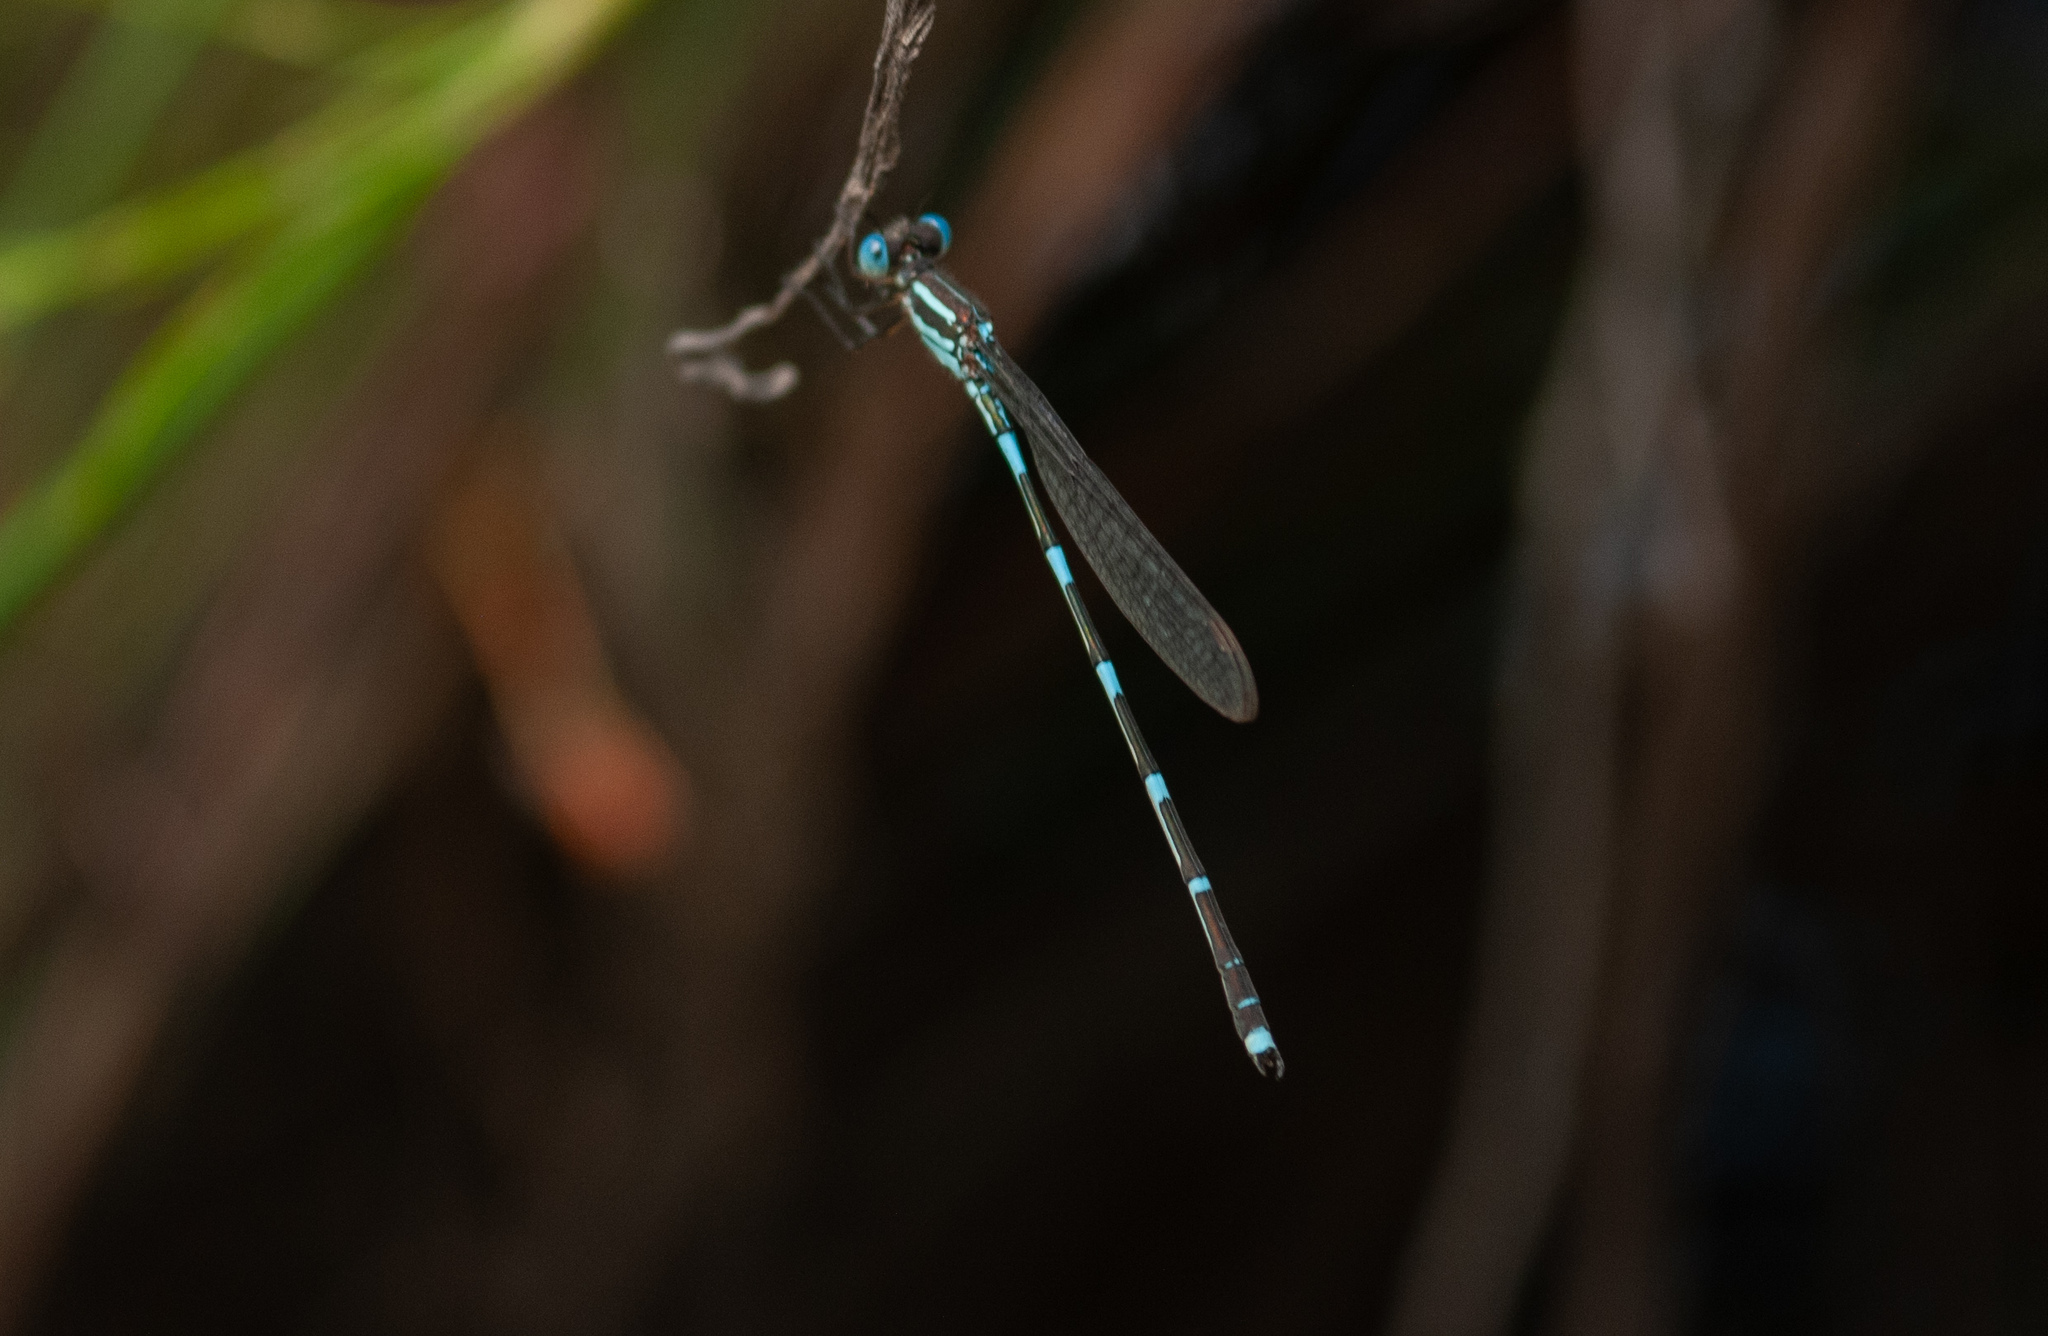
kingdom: Animalia
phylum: Arthropoda
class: Insecta
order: Odonata
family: Lestidae
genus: Austrolestes
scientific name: Austrolestes leda
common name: Wandering ringtail
